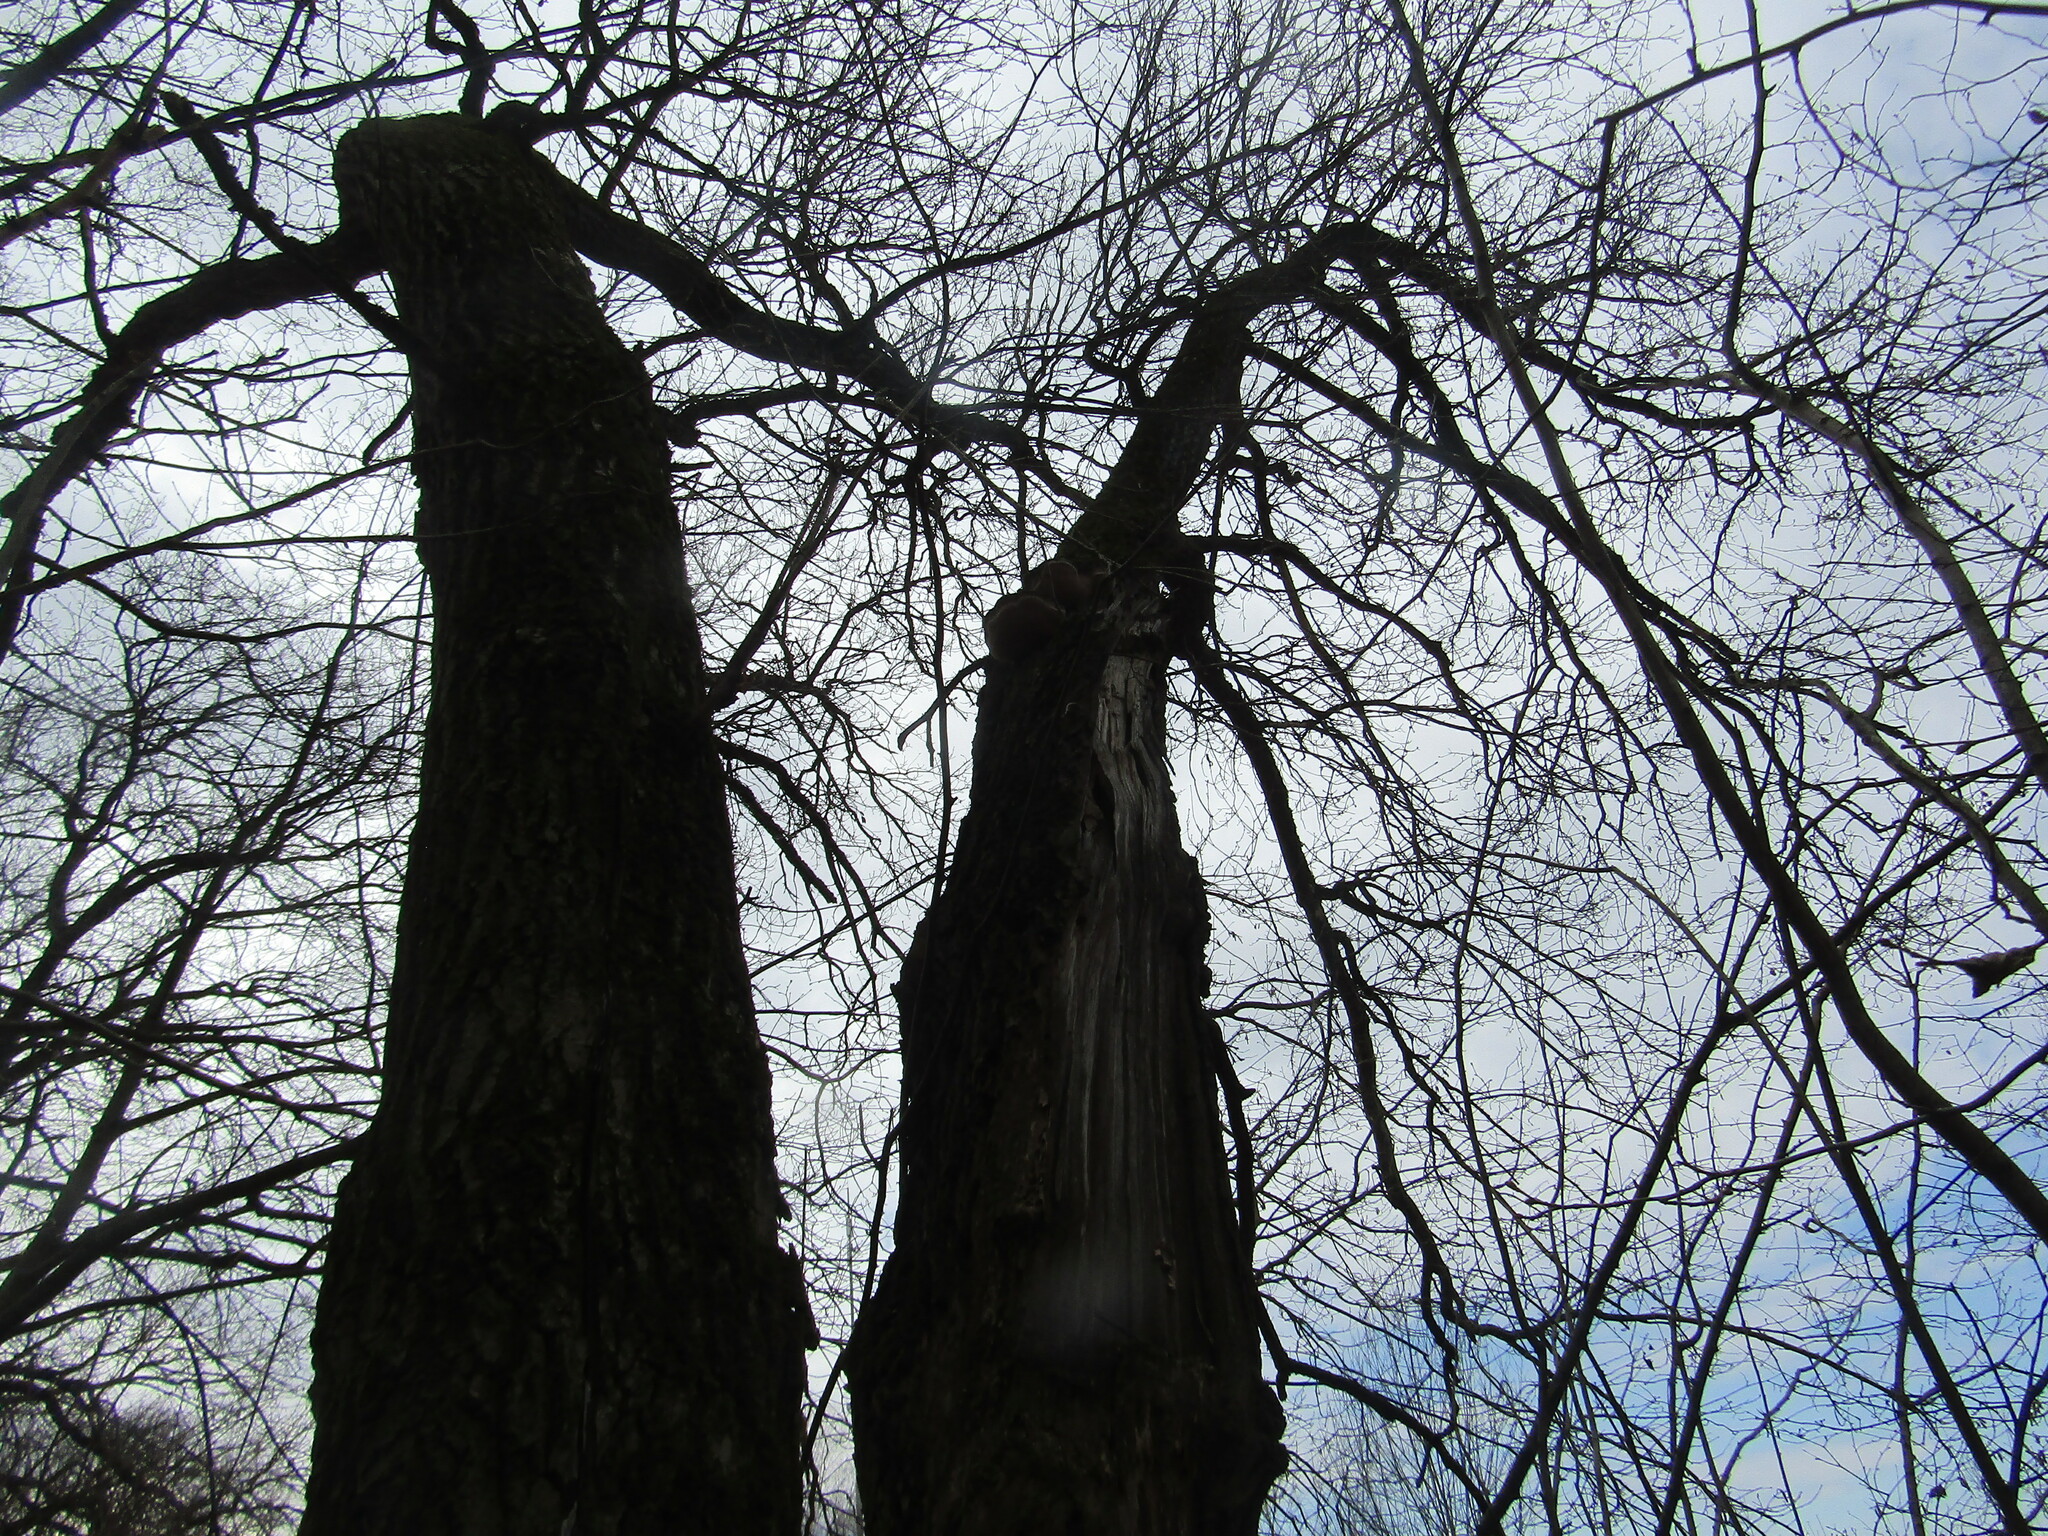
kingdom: Plantae
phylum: Tracheophyta
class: Magnoliopsida
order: Fagales
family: Fagaceae
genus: Quercus
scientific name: Quercus robur
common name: Pedunculate oak
